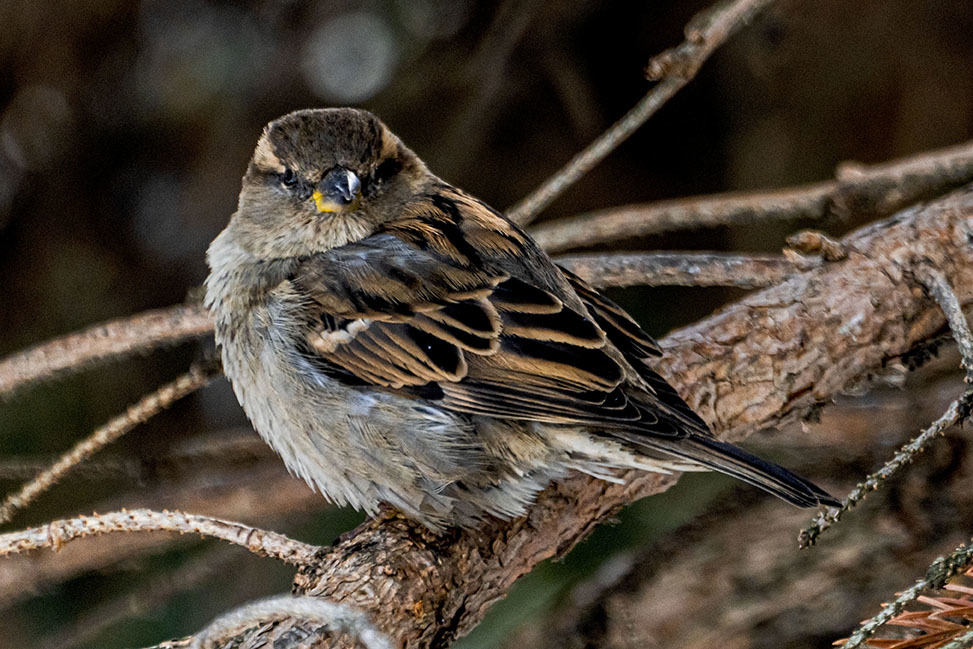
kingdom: Animalia
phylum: Chordata
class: Aves
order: Passeriformes
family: Passeridae
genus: Passer
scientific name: Passer domesticus
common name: House sparrow
